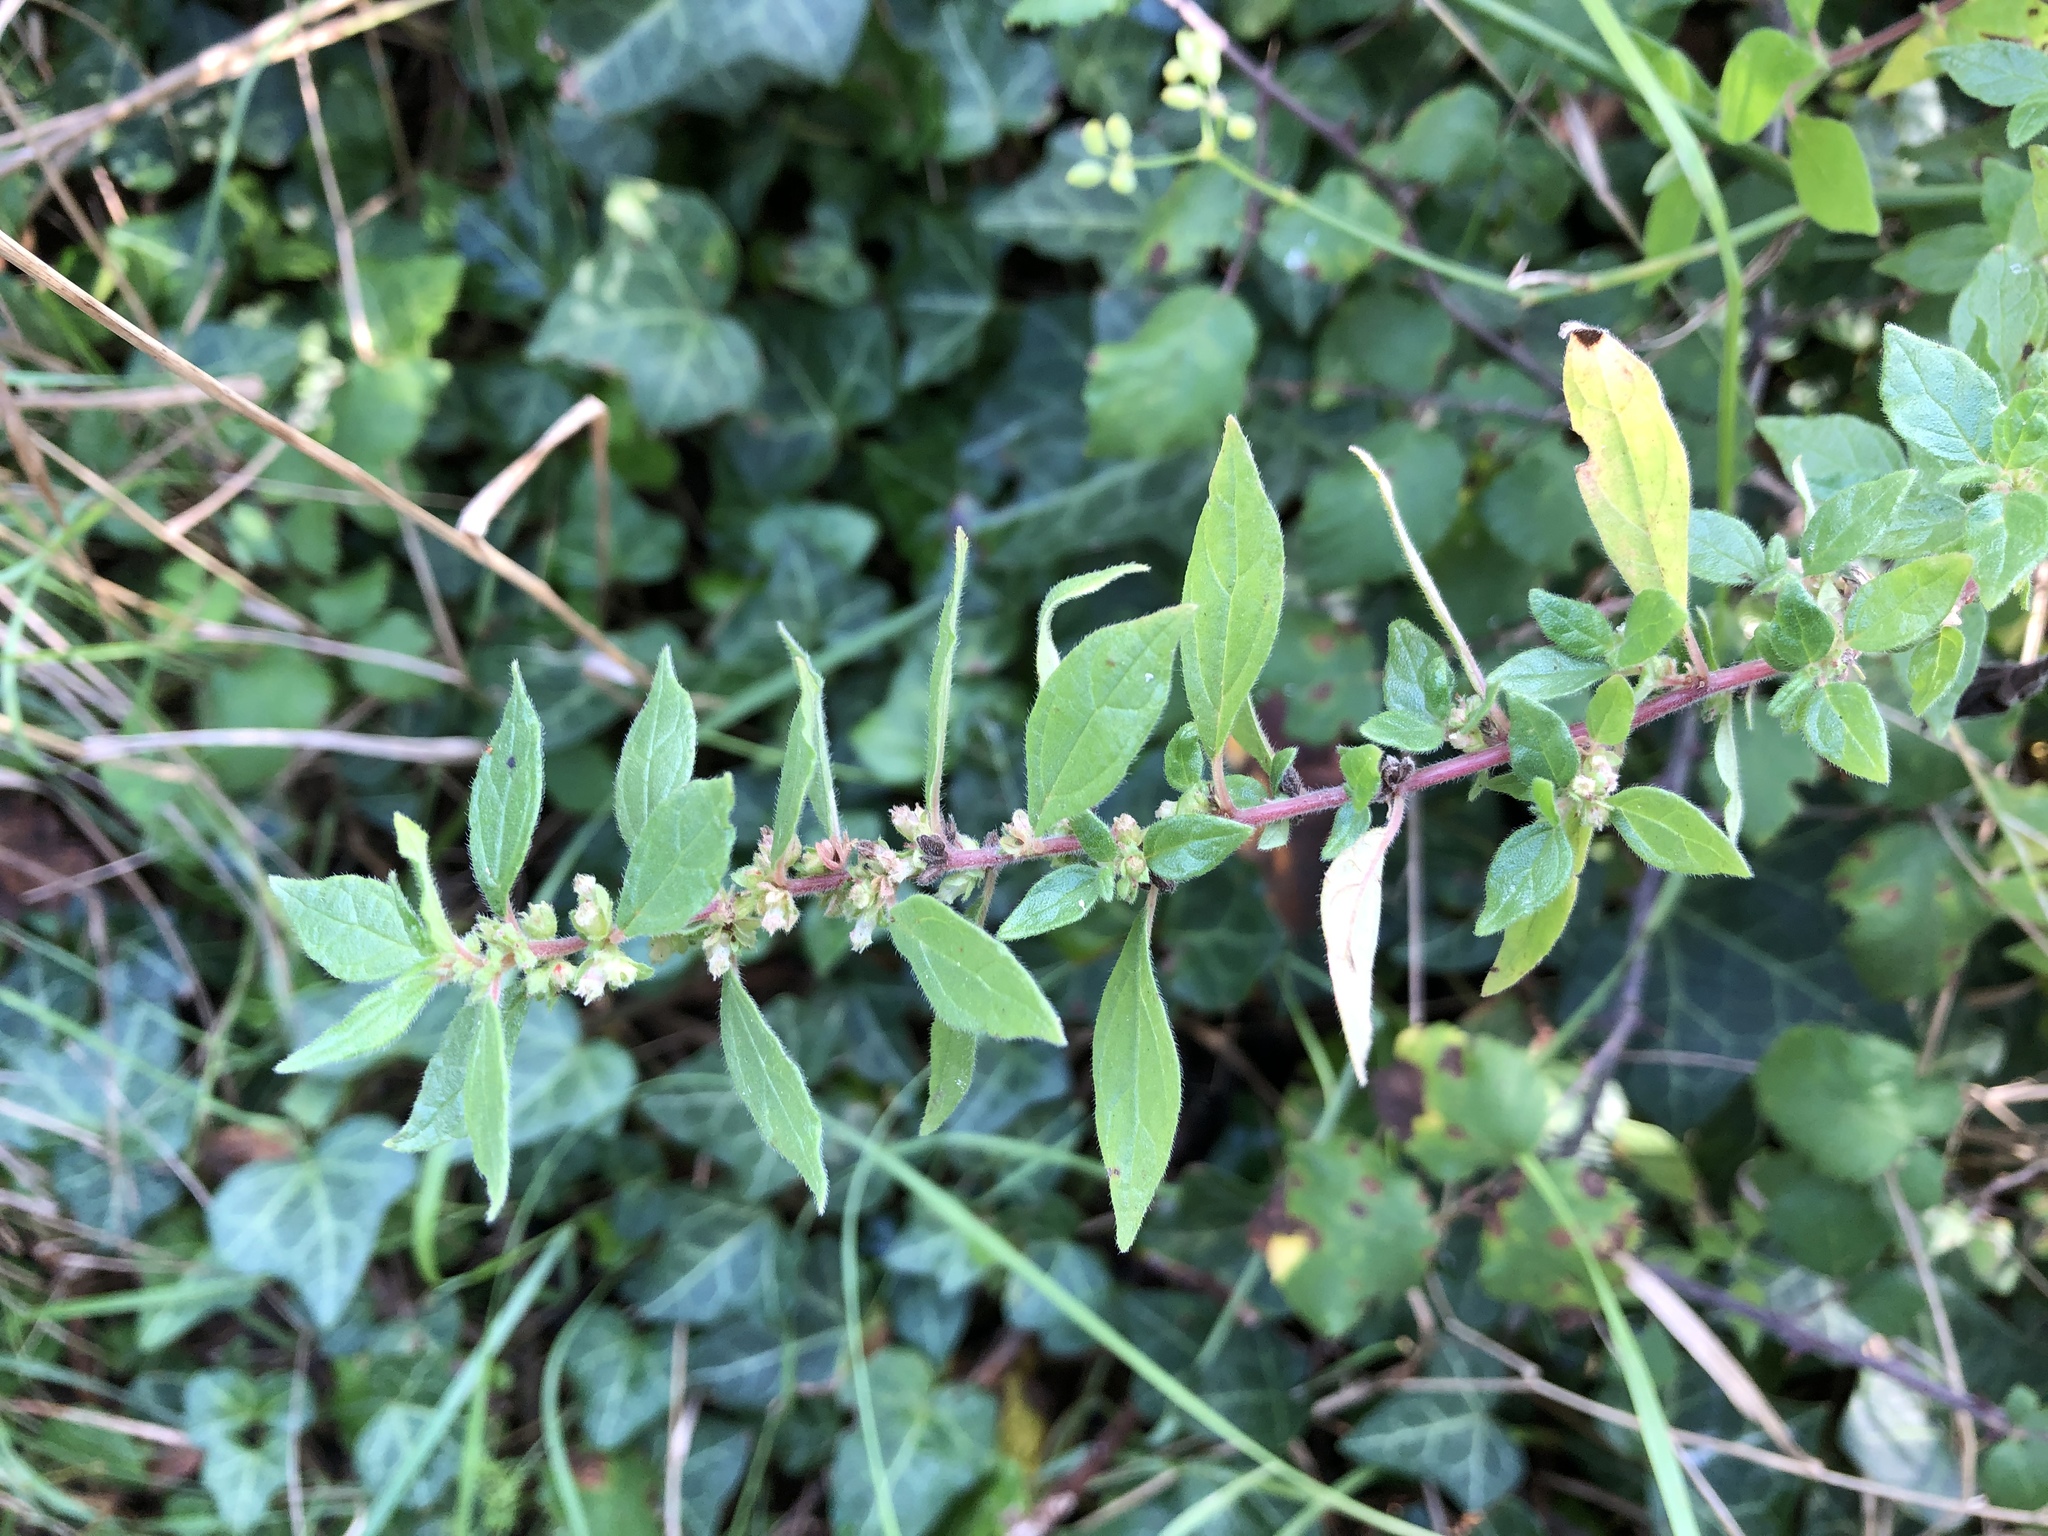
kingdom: Plantae
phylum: Tracheophyta
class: Magnoliopsida
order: Rosales
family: Urticaceae
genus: Parietaria
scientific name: Parietaria judaica
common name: Pellitory-of-the-wall
